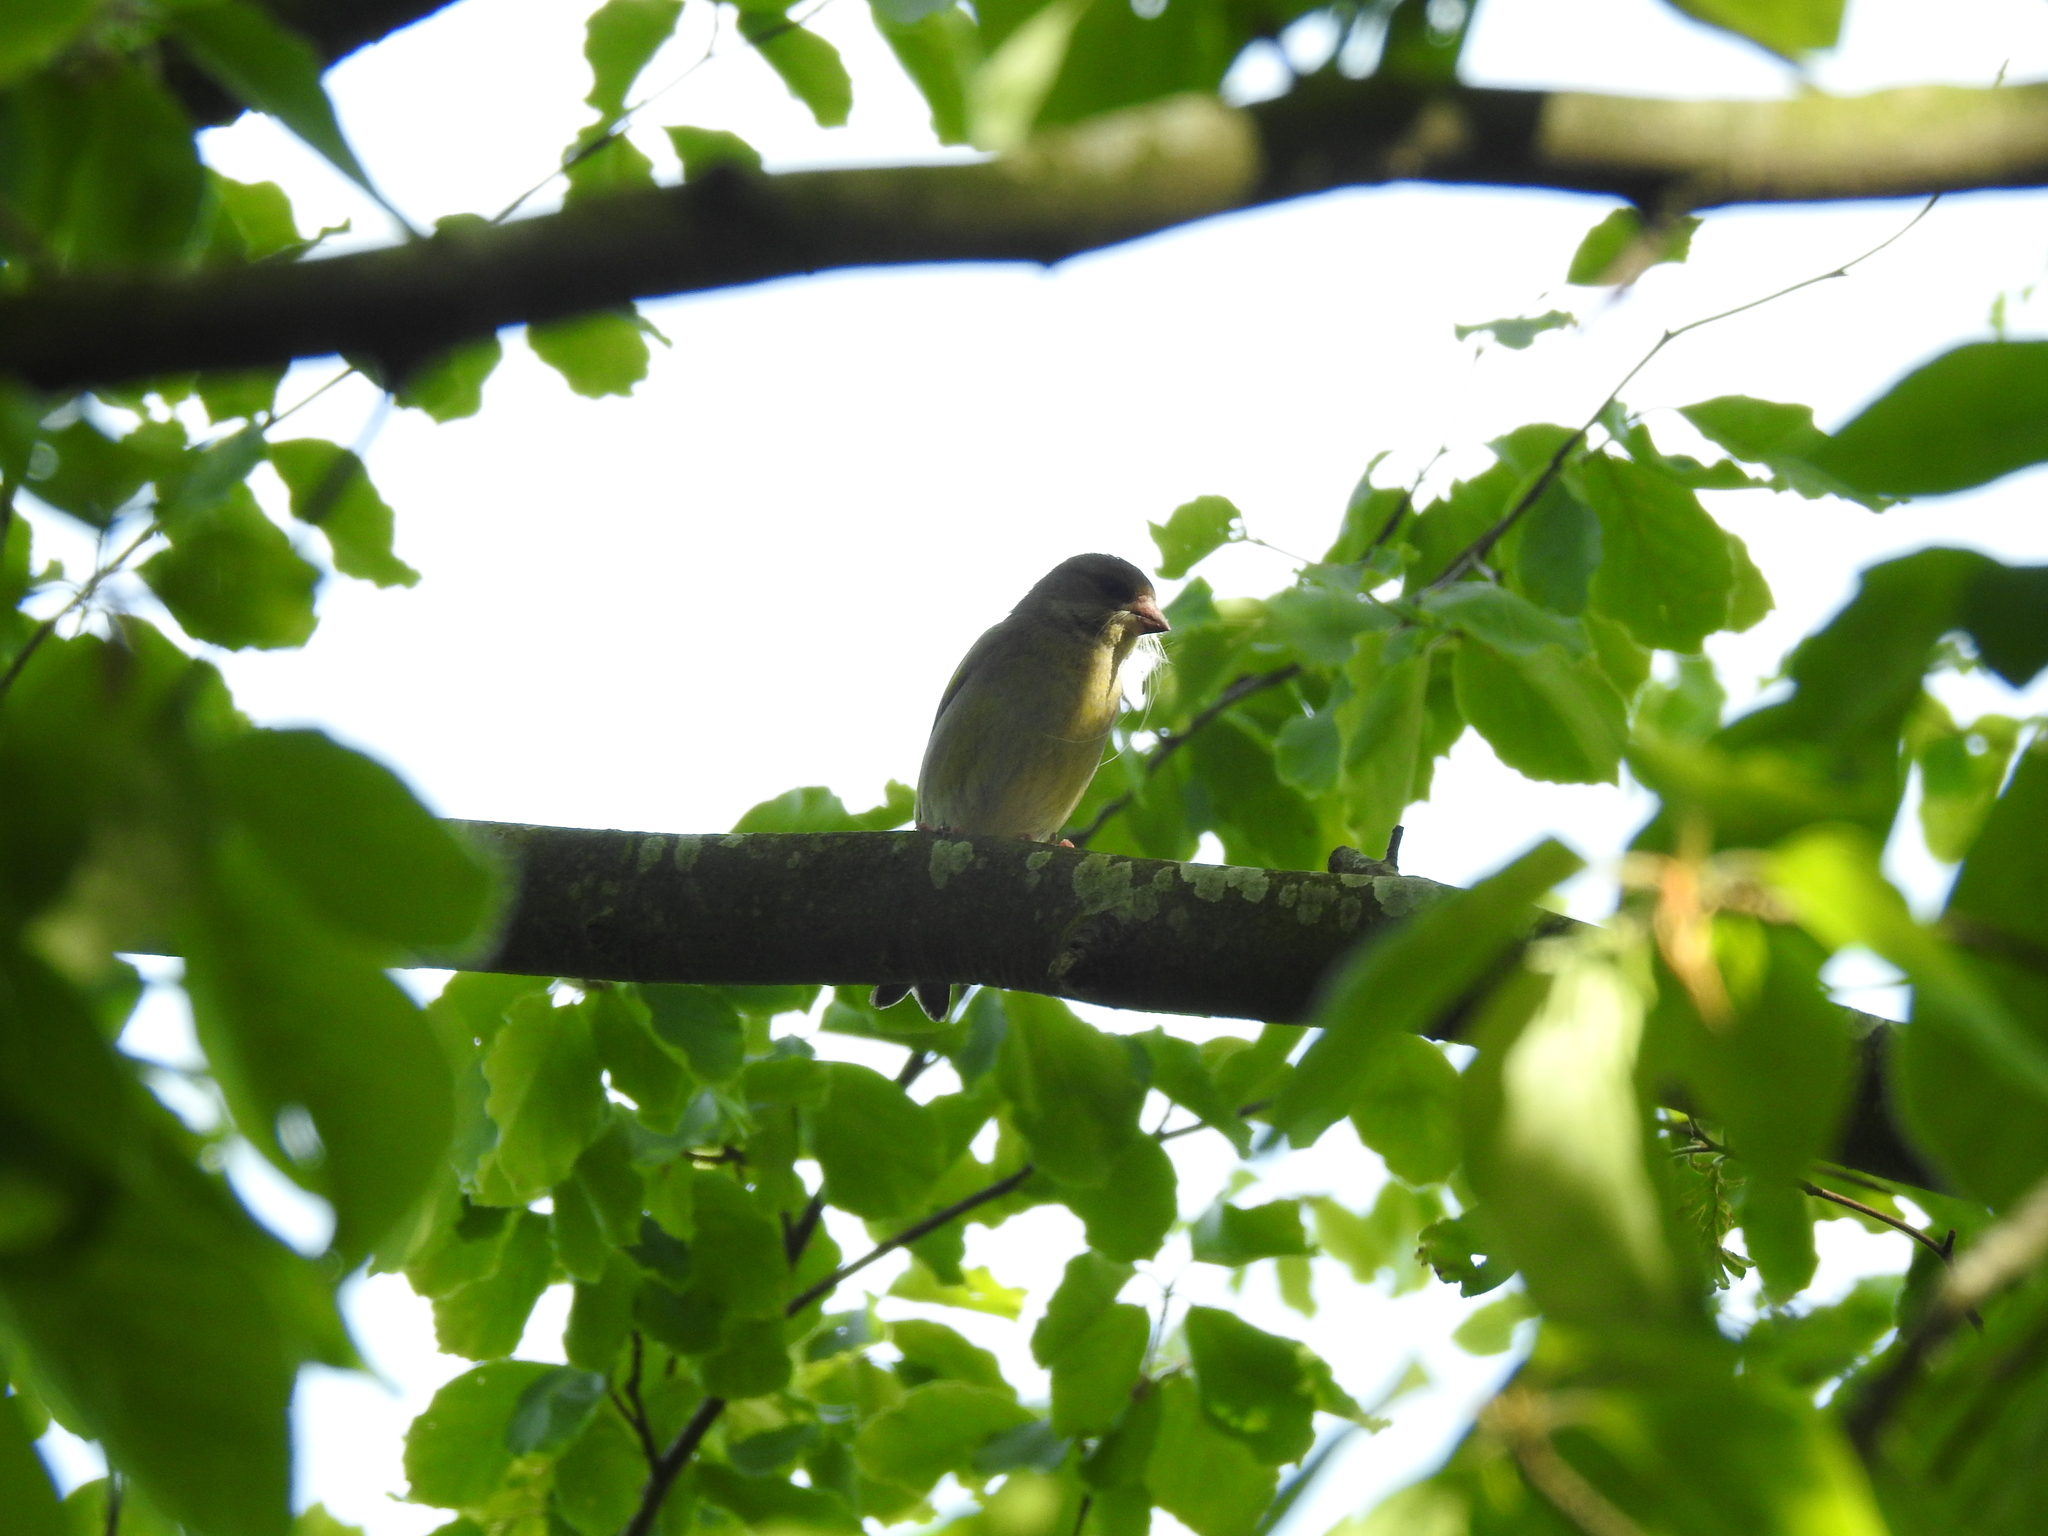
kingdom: Plantae
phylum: Tracheophyta
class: Liliopsida
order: Poales
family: Poaceae
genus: Chloris
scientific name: Chloris chloris
